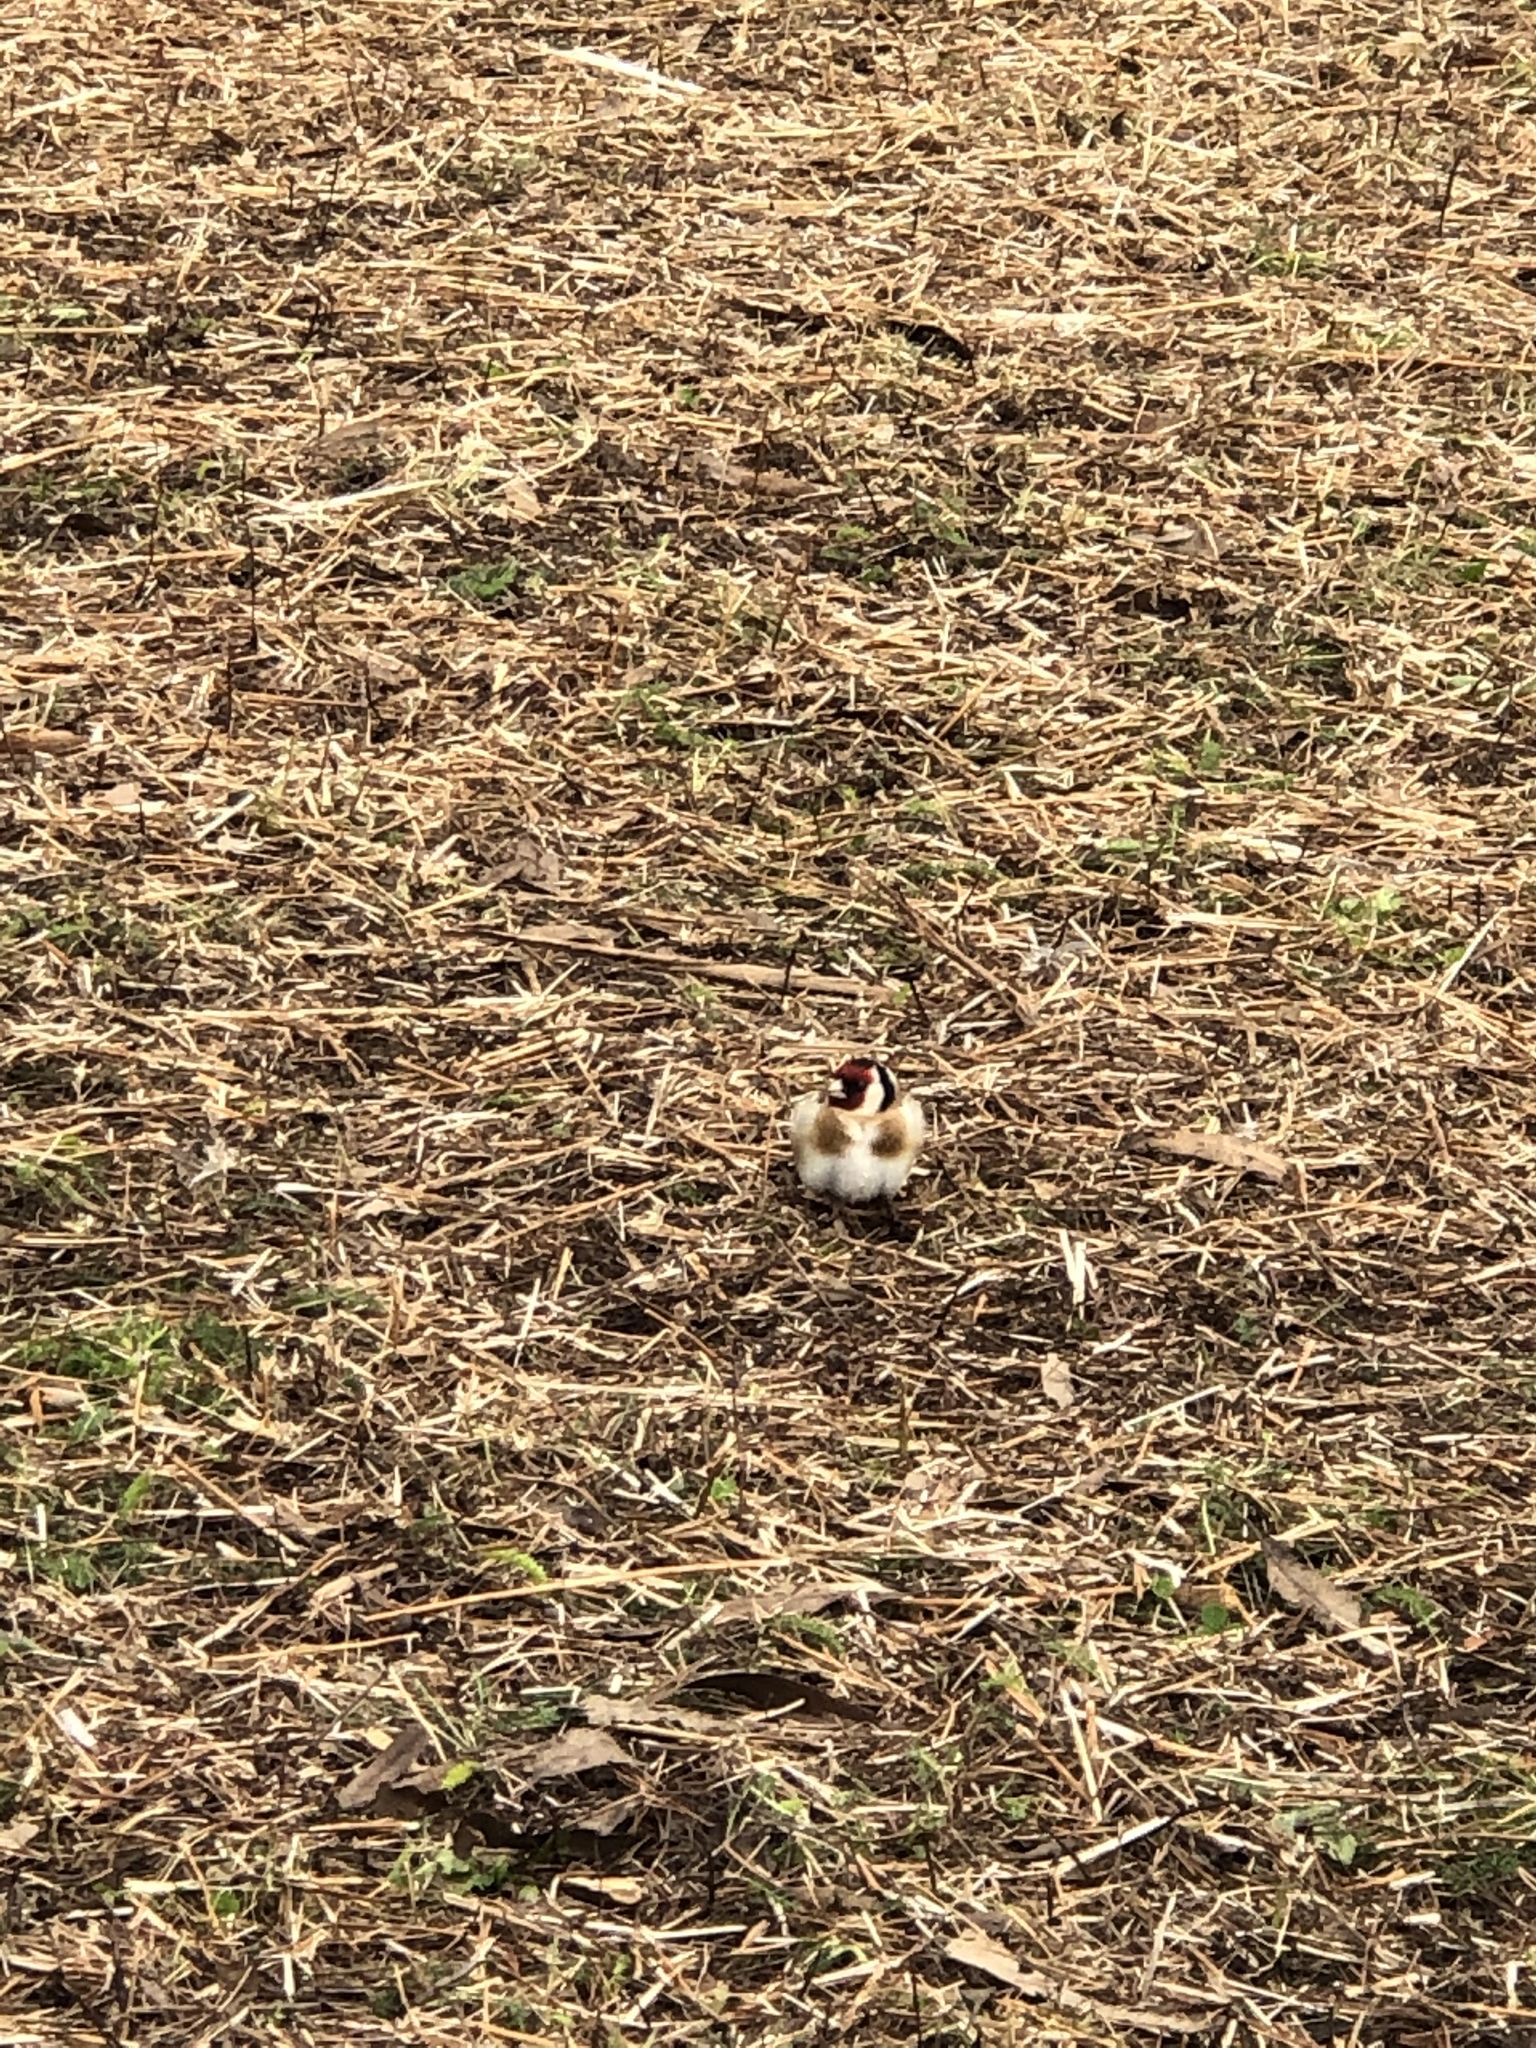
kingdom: Animalia
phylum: Chordata
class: Aves
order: Passeriformes
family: Fringillidae
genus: Carduelis
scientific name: Carduelis carduelis
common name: European goldfinch
